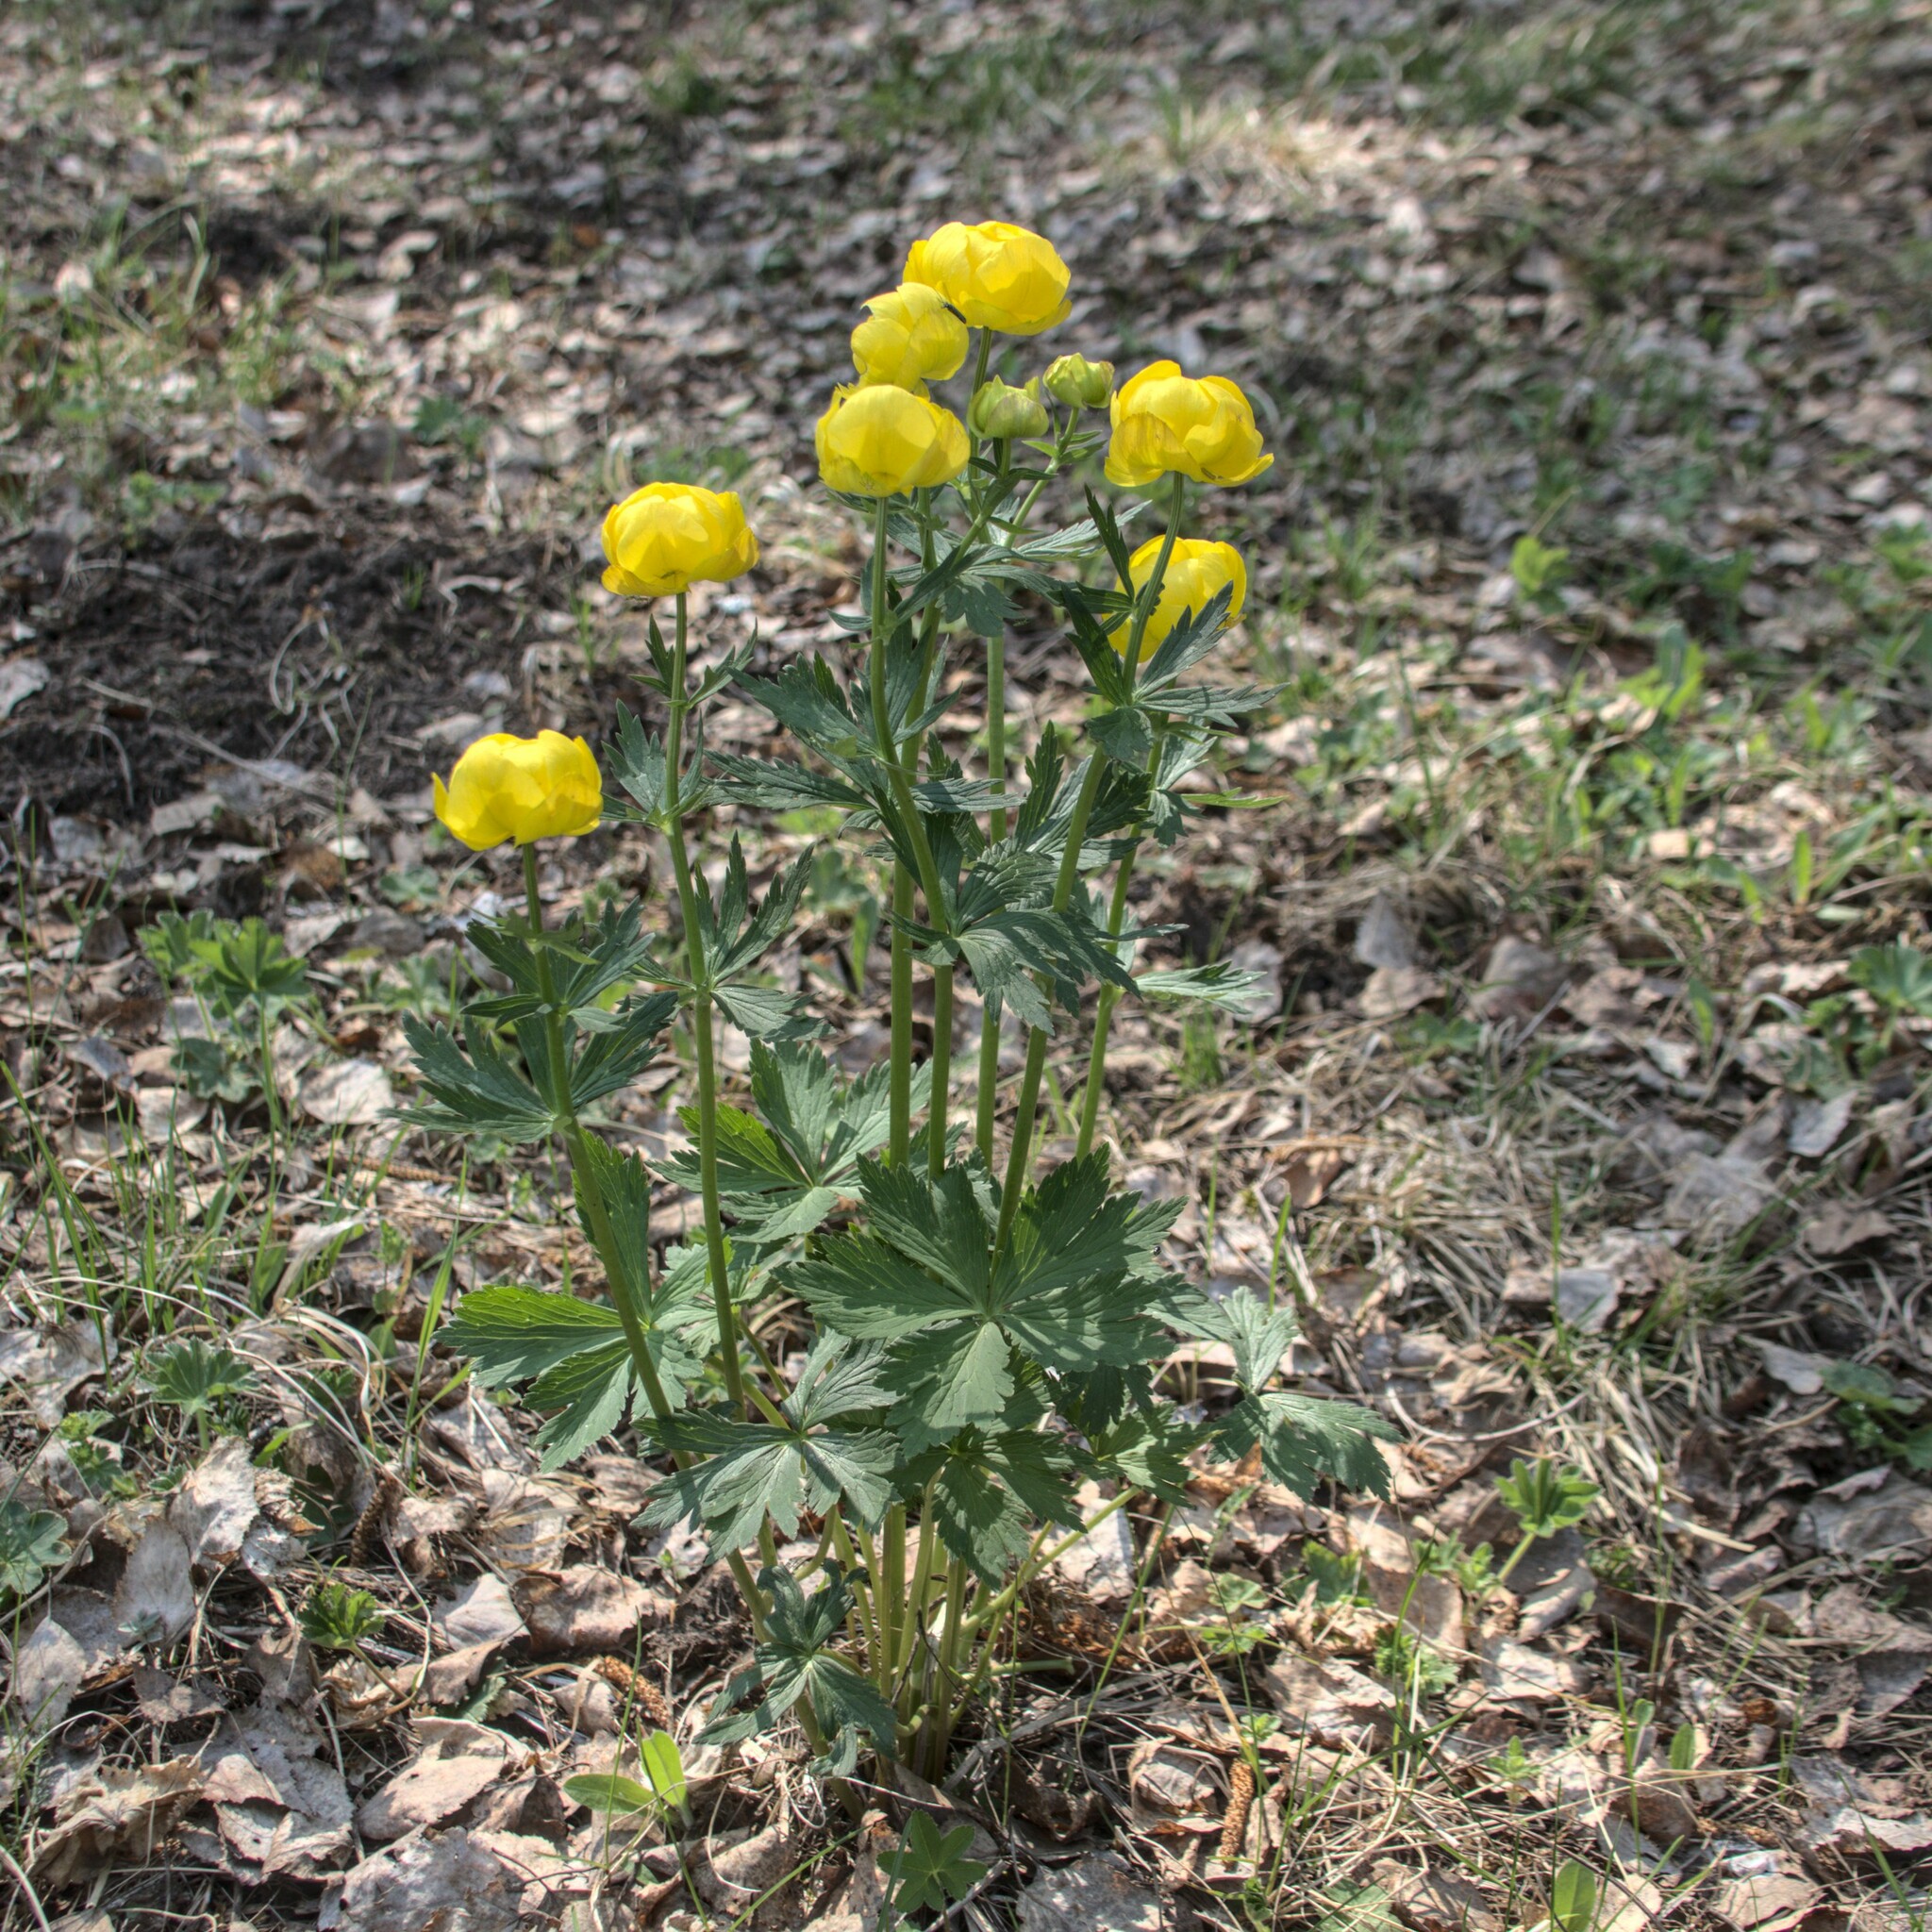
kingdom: Plantae
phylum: Tracheophyta
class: Magnoliopsida
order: Ranunculales
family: Ranunculaceae
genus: Trollius
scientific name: Trollius europaeus
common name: European globeflower
